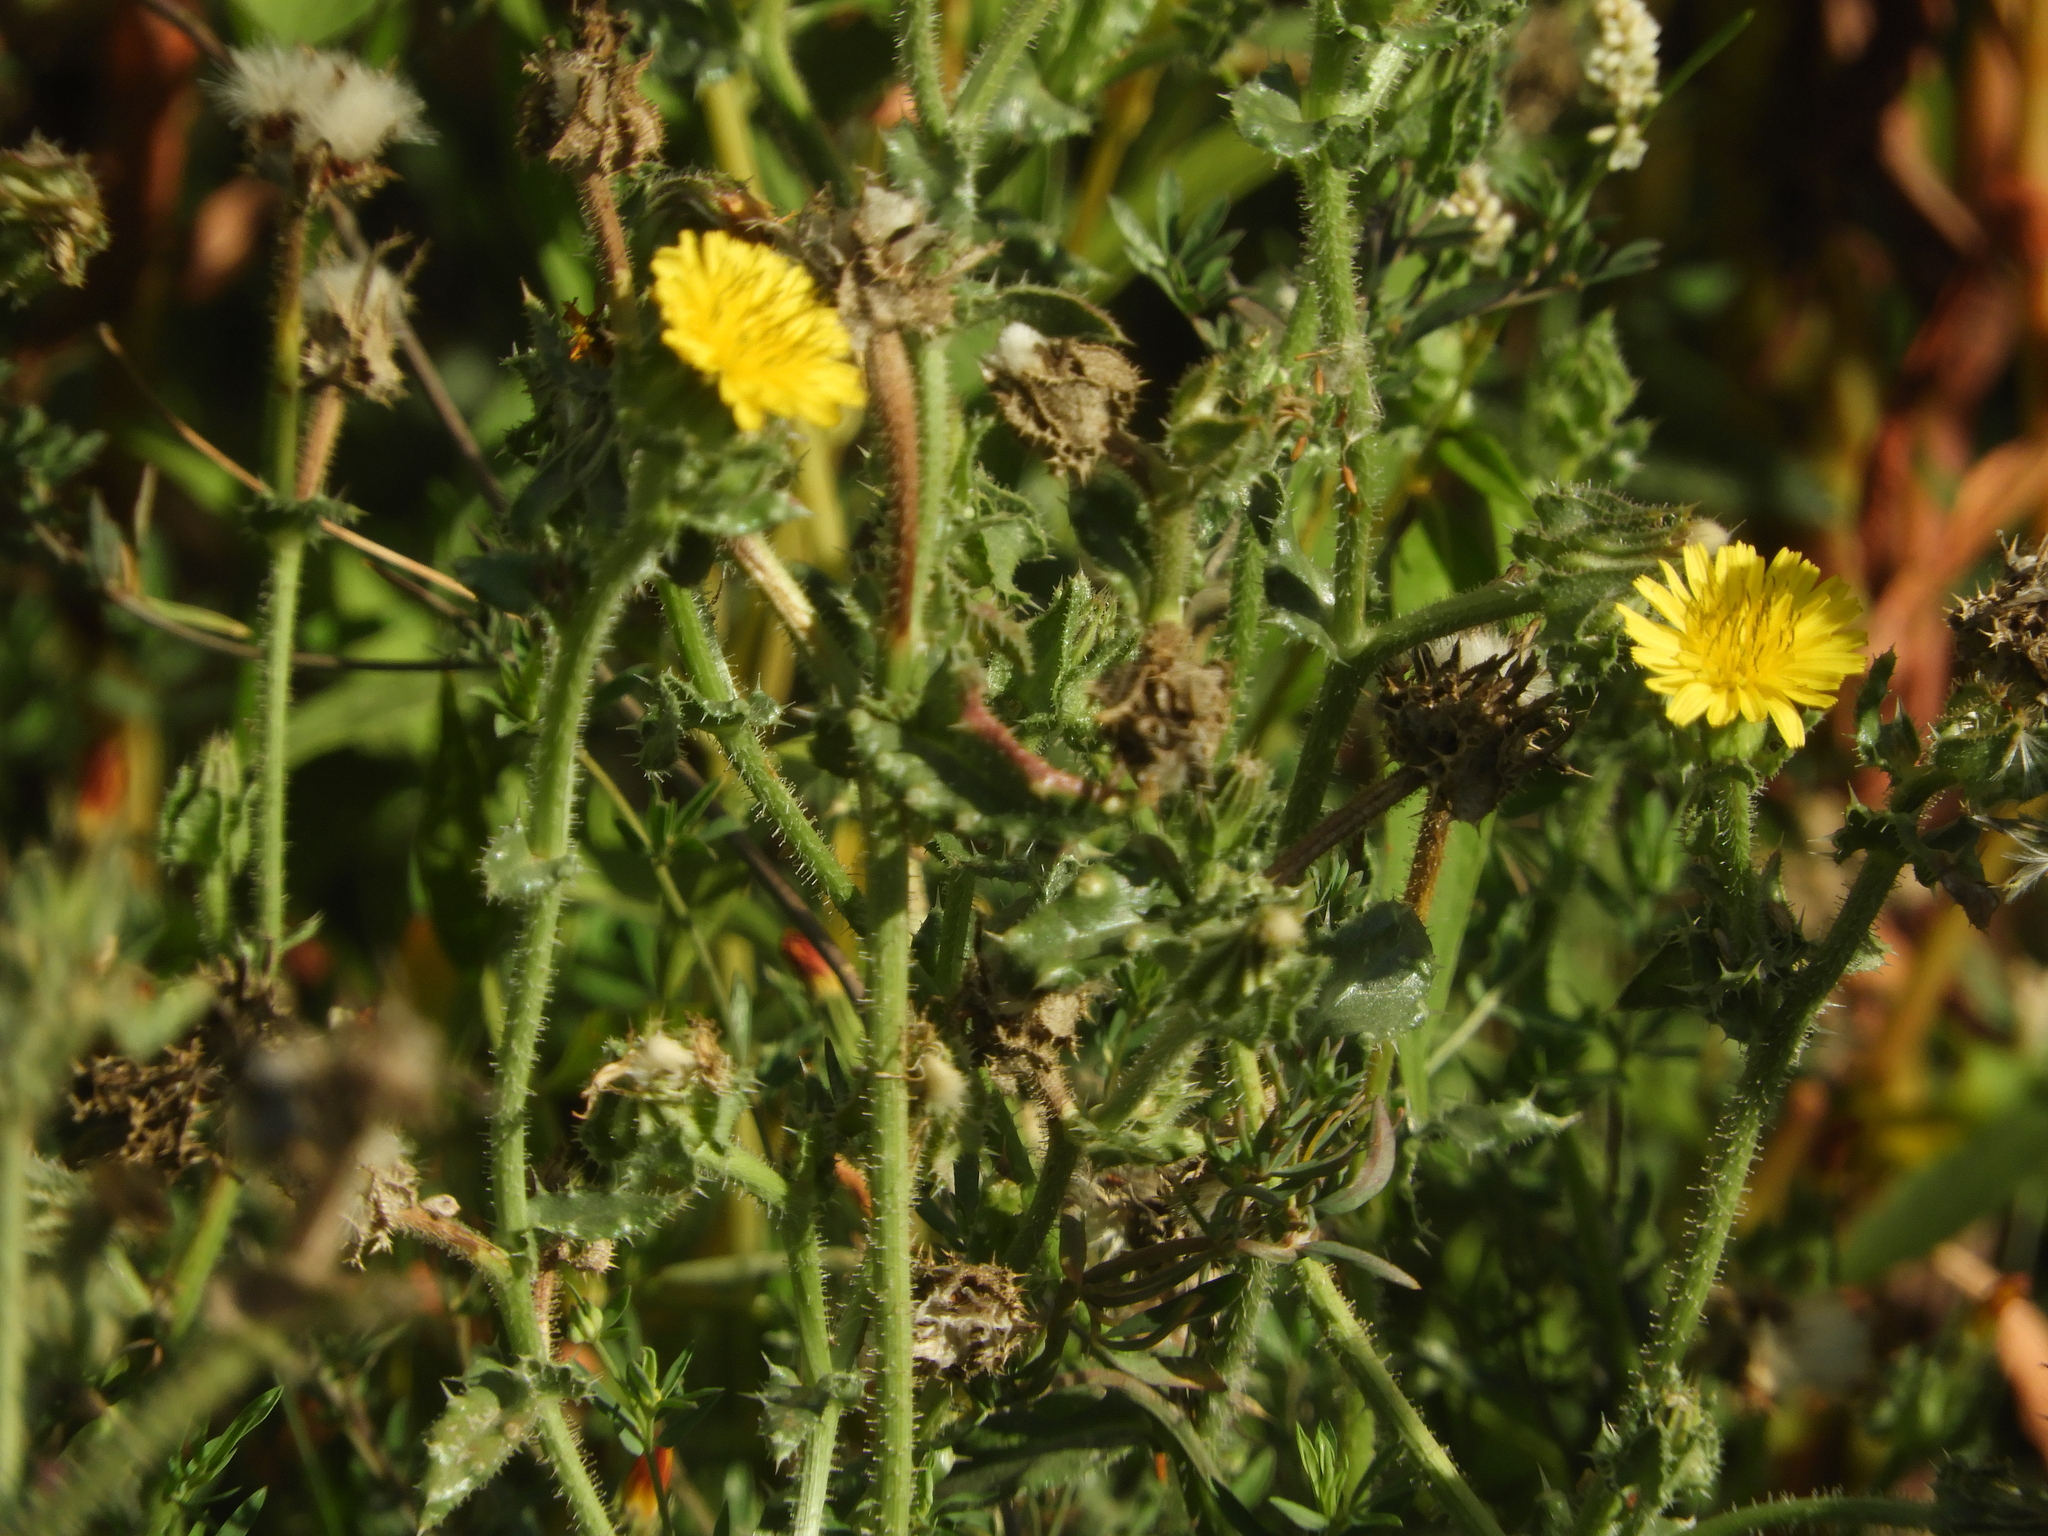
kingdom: Plantae
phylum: Tracheophyta
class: Magnoliopsida
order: Asterales
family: Asteraceae
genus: Helminthotheca
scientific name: Helminthotheca echioides
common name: Ox-tongue
